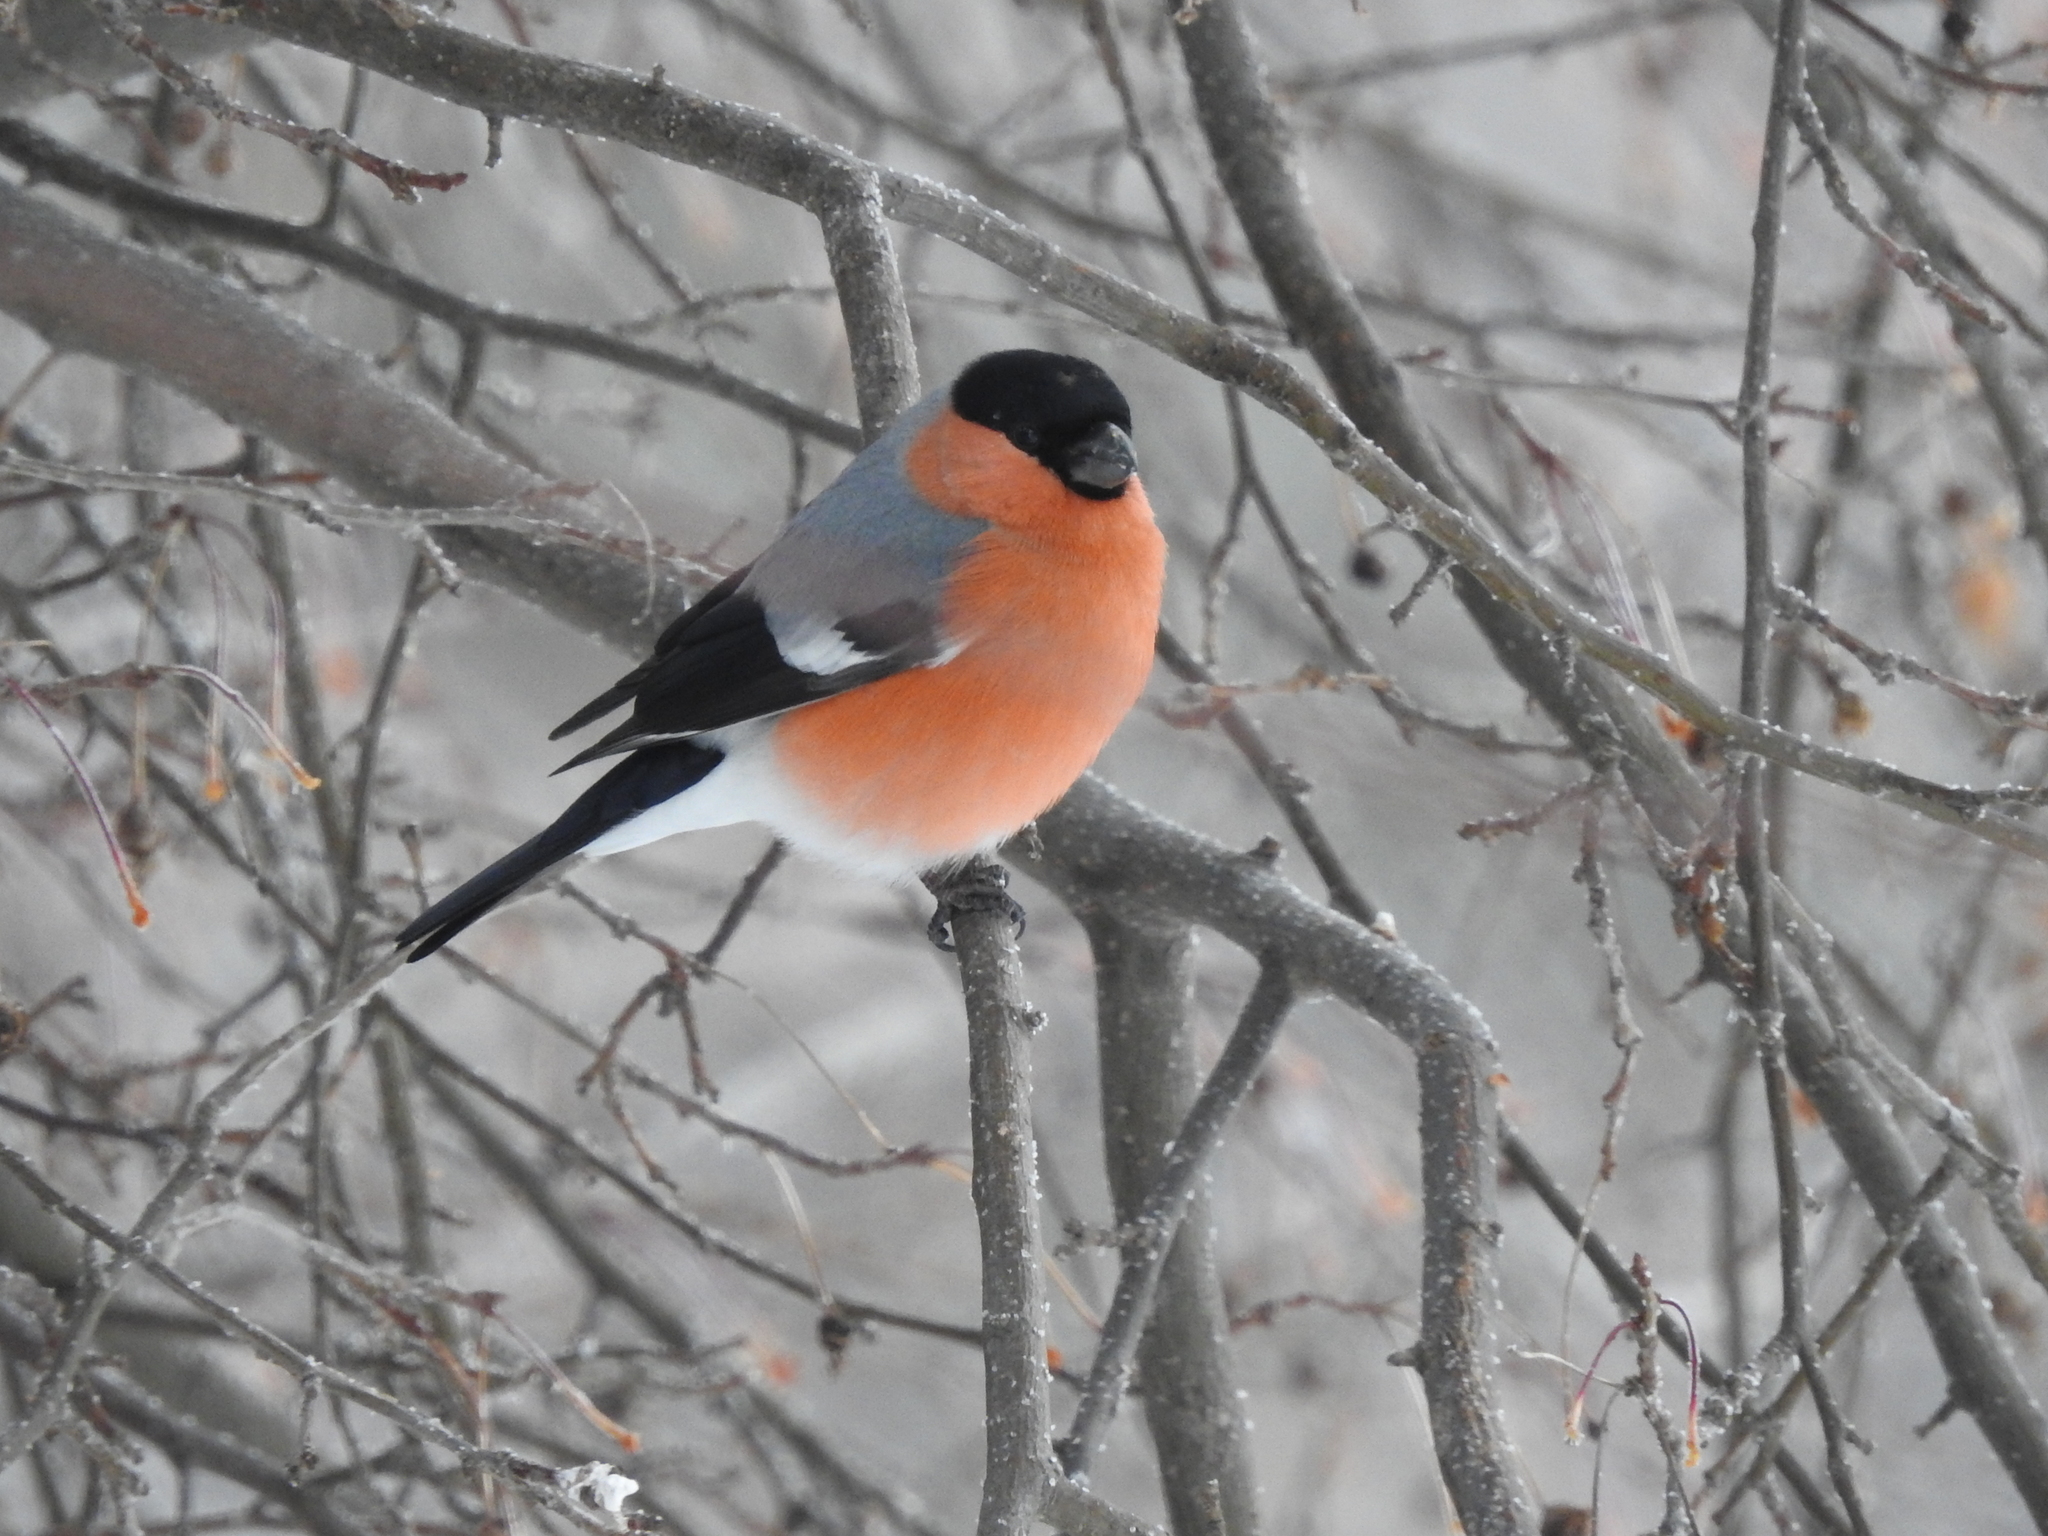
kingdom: Animalia
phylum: Chordata
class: Aves
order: Passeriformes
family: Fringillidae
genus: Pyrrhula
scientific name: Pyrrhula pyrrhula
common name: Eurasian bullfinch
